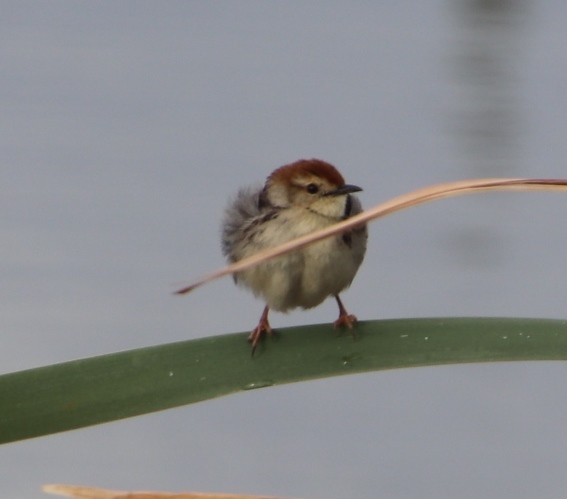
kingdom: Animalia
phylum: Chordata
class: Aves
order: Passeriformes
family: Cisticolidae
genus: Cisticola
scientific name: Cisticola tinniens
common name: Levaillant's cisticola
